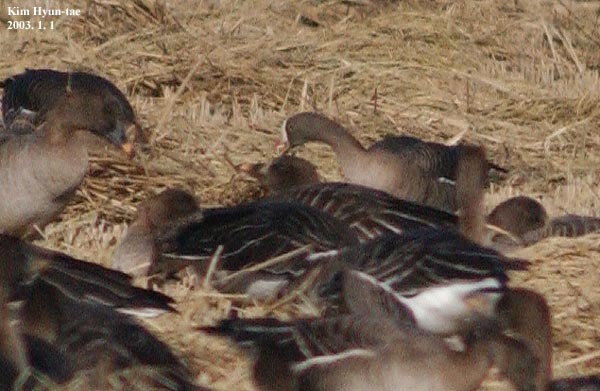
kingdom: Animalia
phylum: Chordata
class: Aves
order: Anseriformes
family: Anatidae
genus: Anser
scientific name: Anser erythropus
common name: Lesser white-fronted goose
